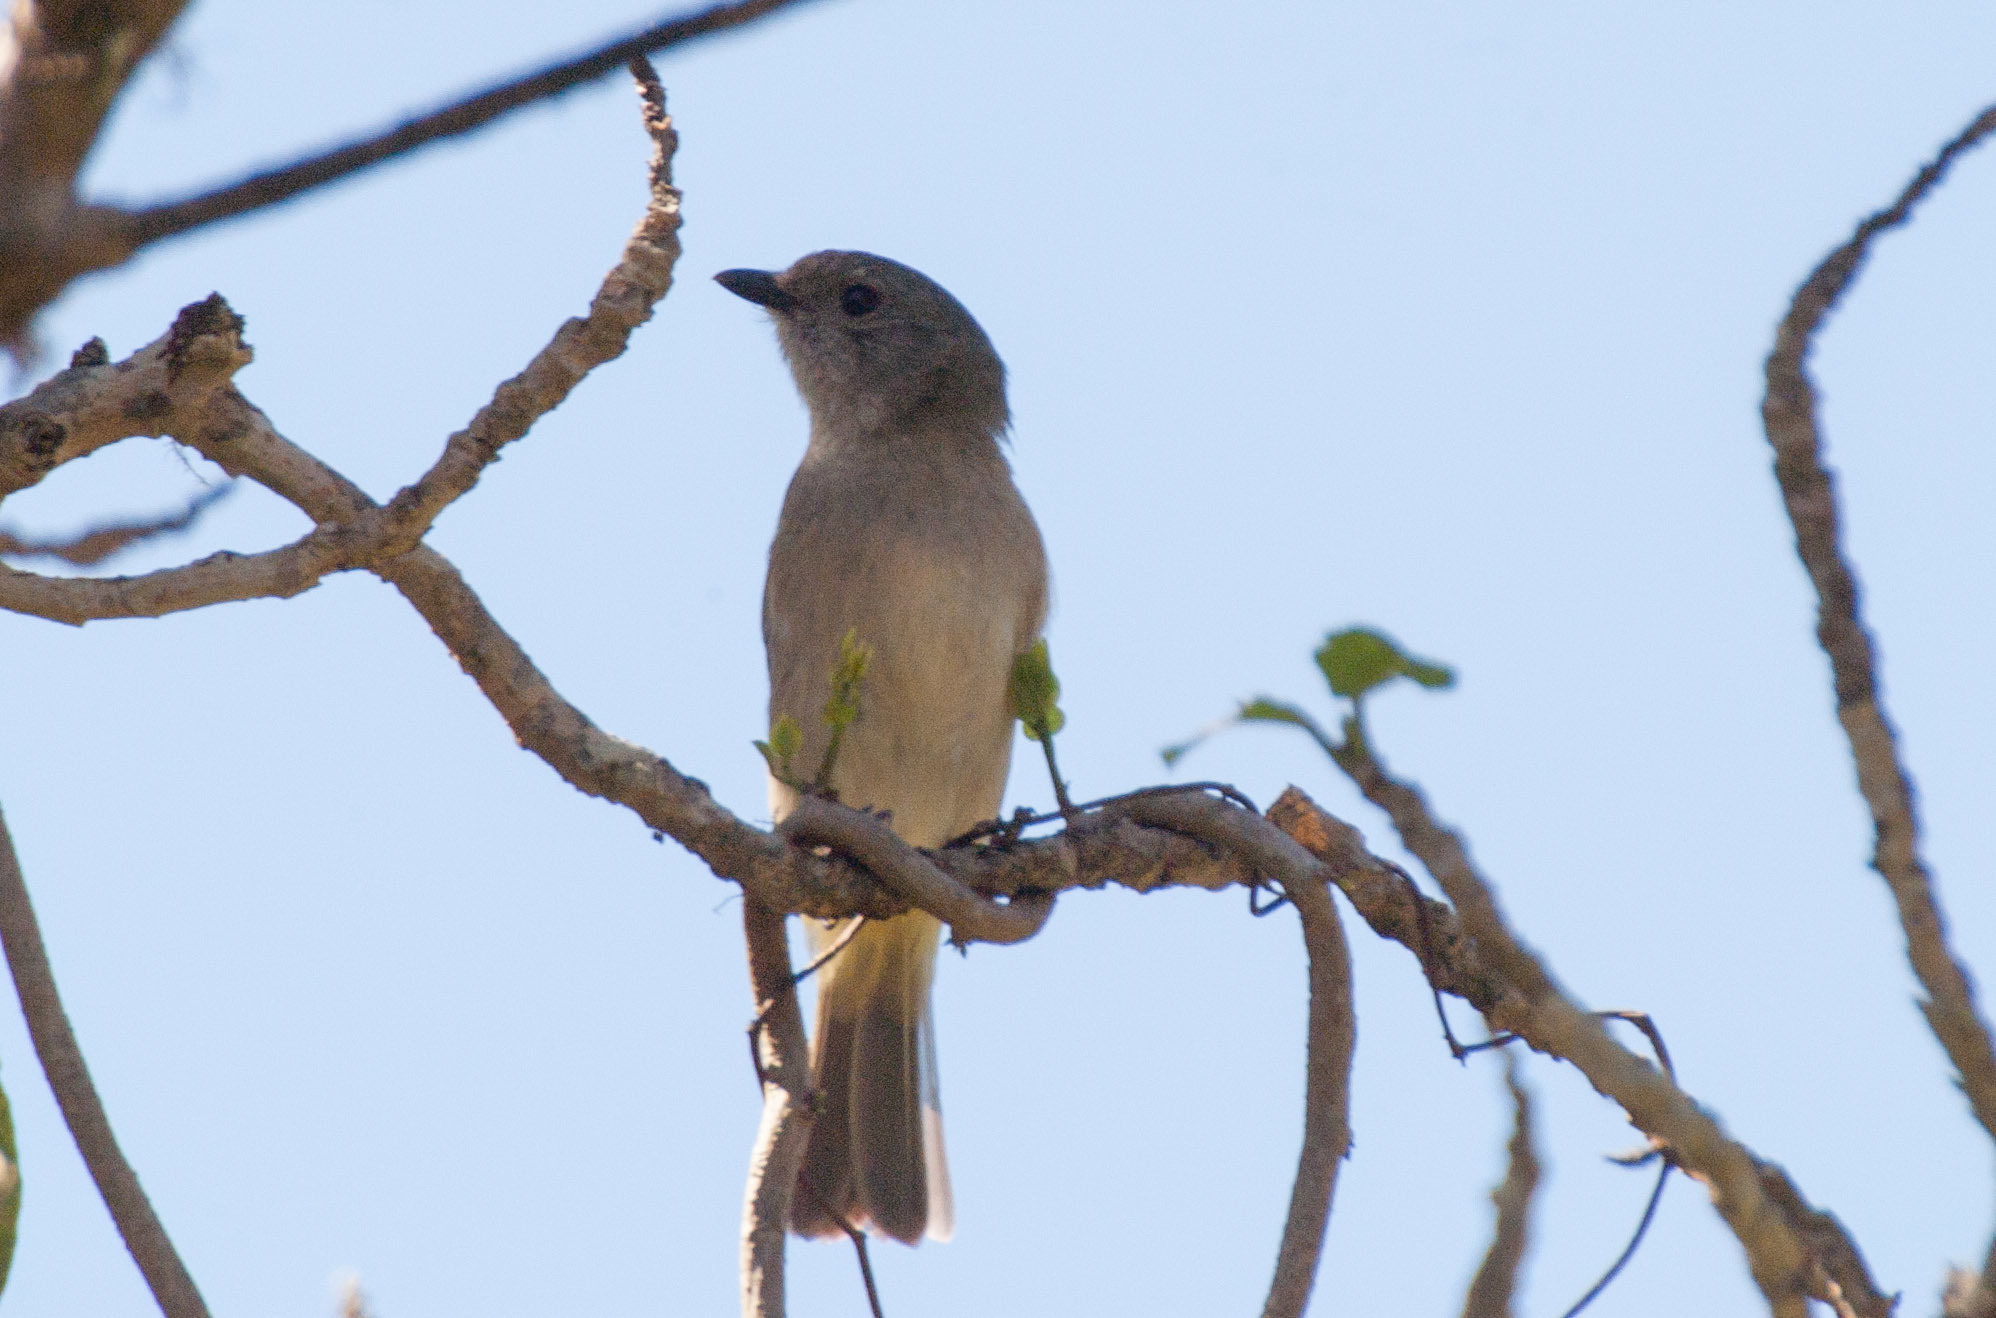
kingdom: Animalia
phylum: Chordata
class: Aves
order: Passeriformes
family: Pachycephalidae
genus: Pachycephala
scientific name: Pachycephala pectoralis
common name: Australian golden whistler
